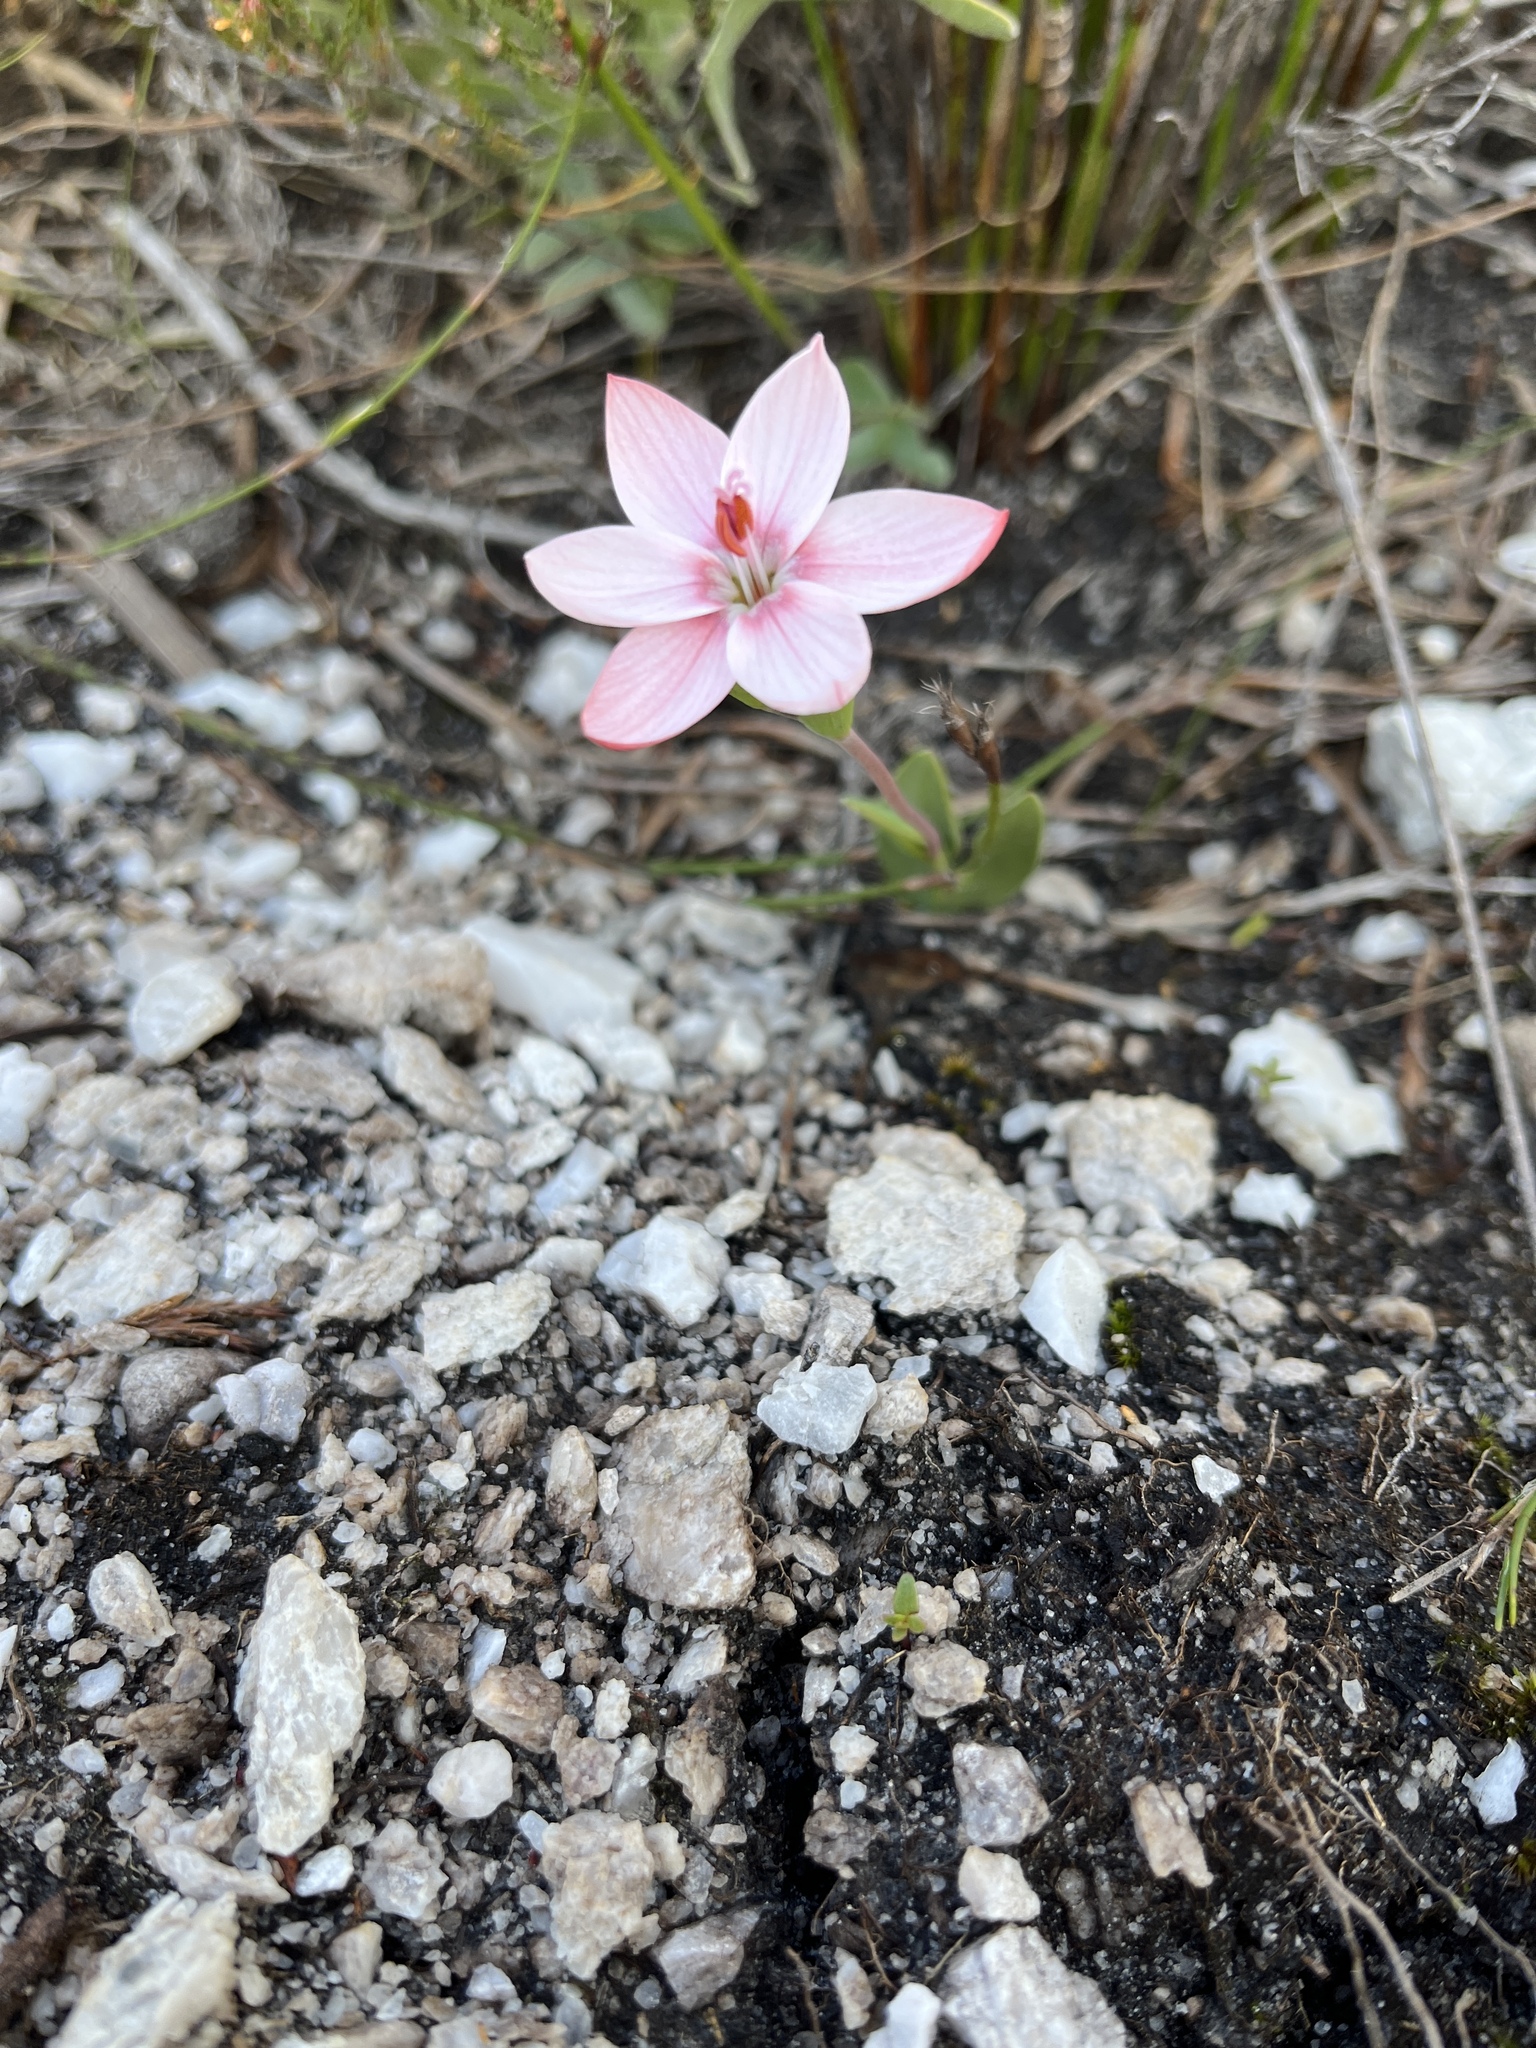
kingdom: Plantae
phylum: Tracheophyta
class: Liliopsida
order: Asparagales
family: Iridaceae
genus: Geissorhiza
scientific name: Geissorhiza ovata
